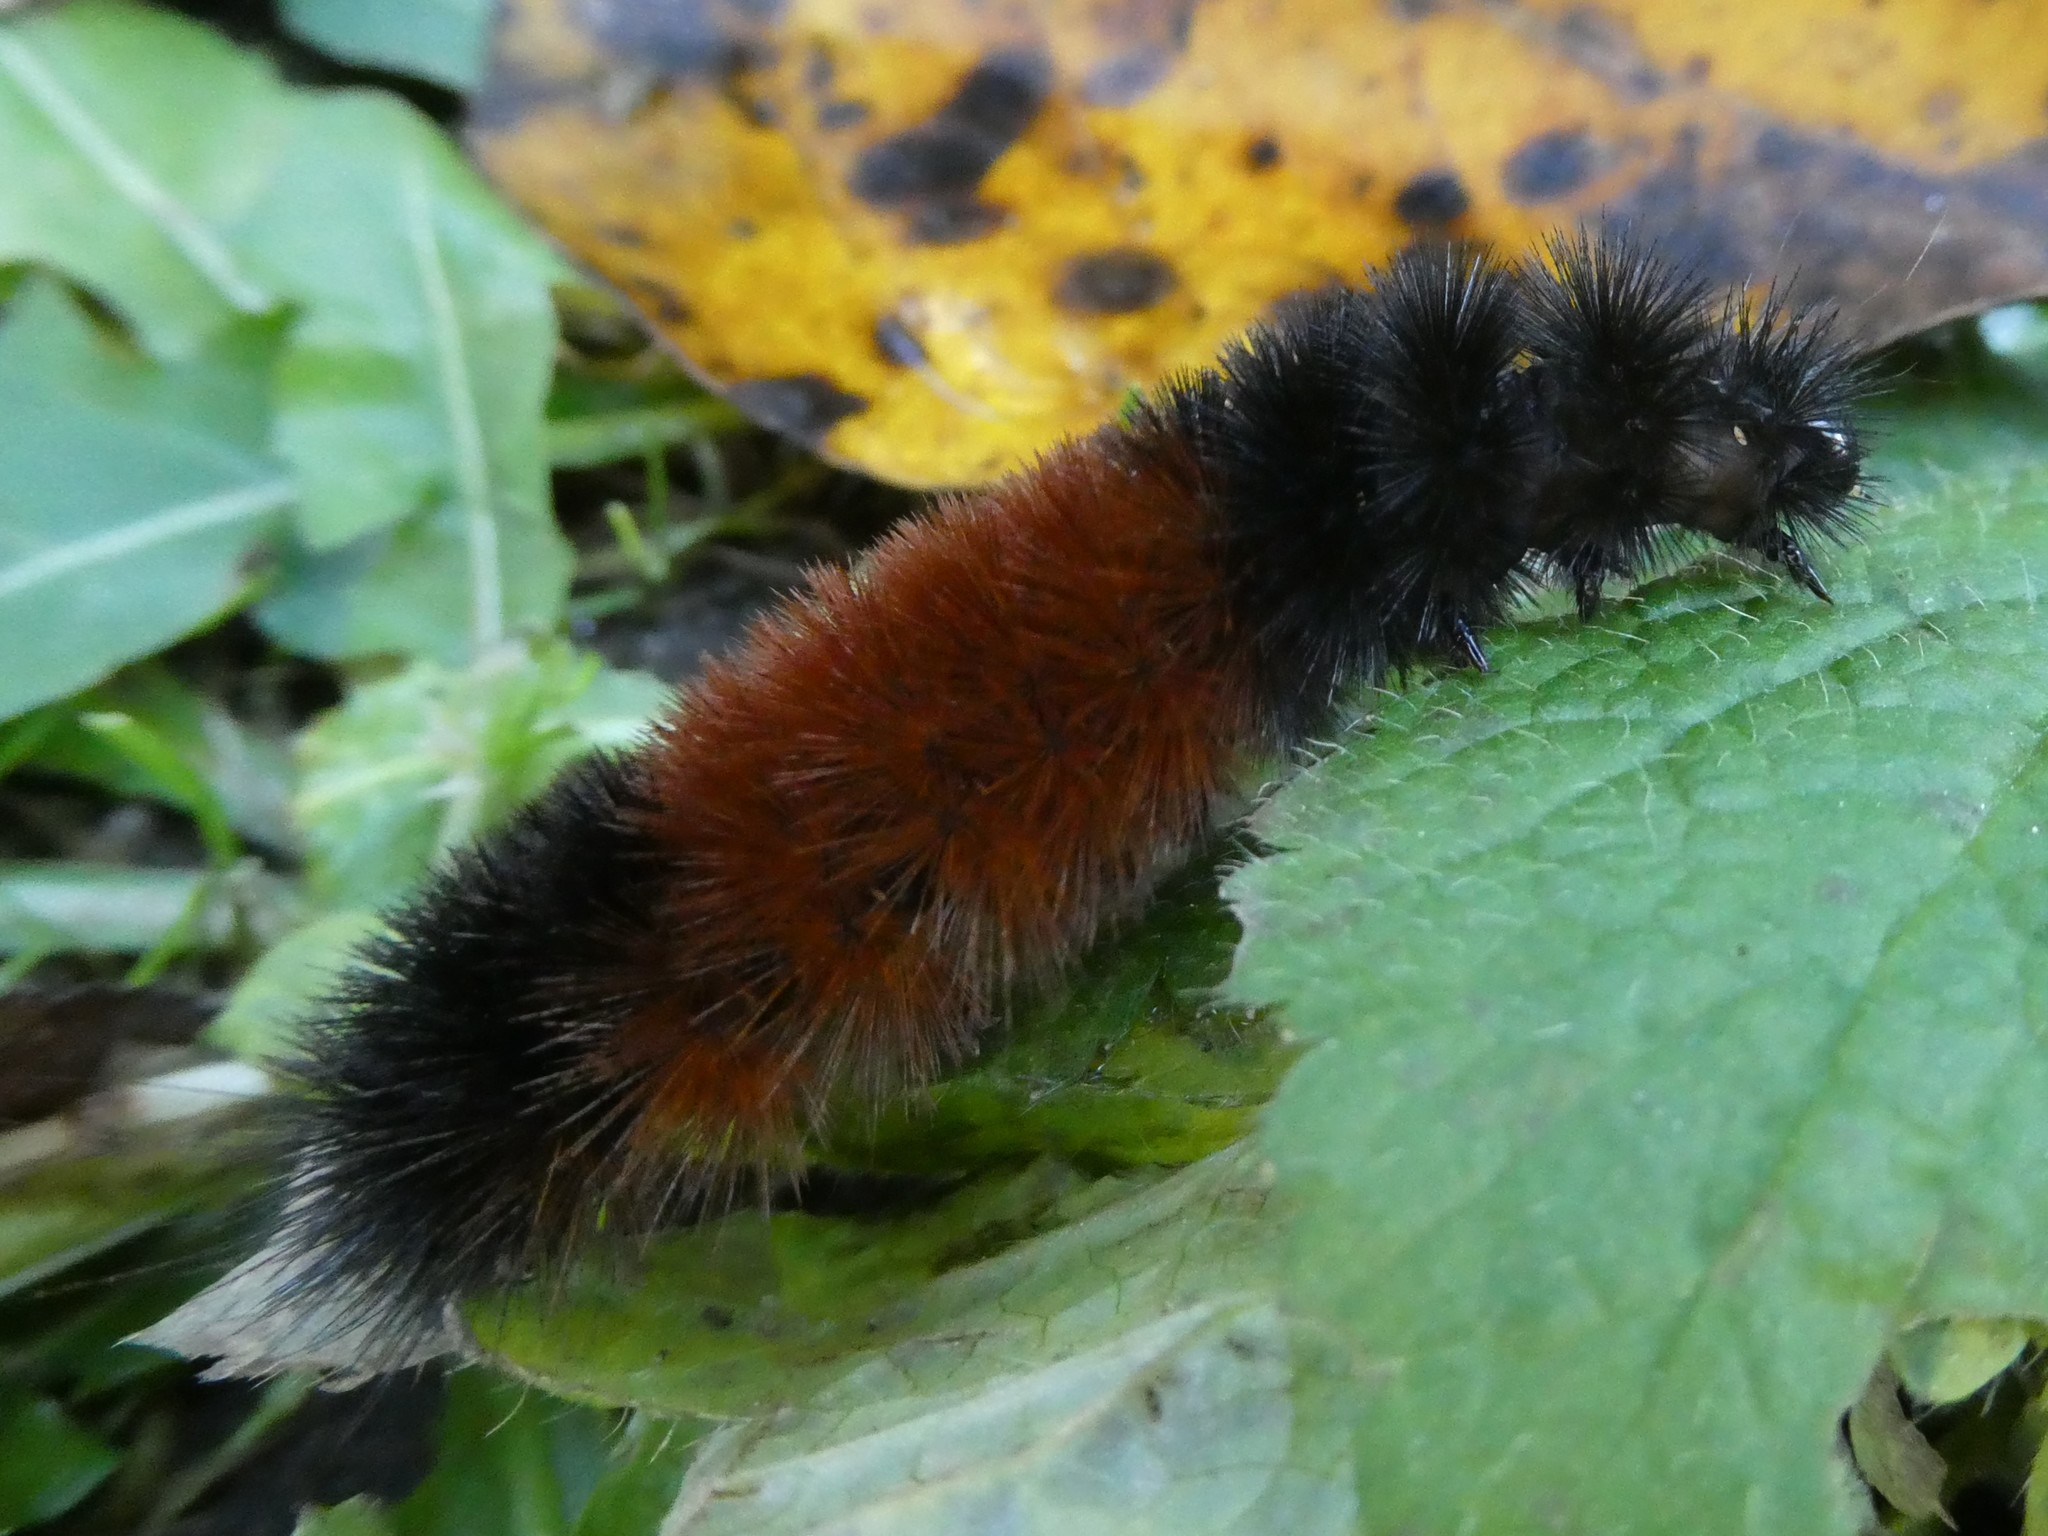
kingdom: Animalia
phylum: Arthropoda
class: Insecta
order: Lepidoptera
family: Erebidae
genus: Pyrrharctia
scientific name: Pyrrharctia isabella
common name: Isabella tiger moth
